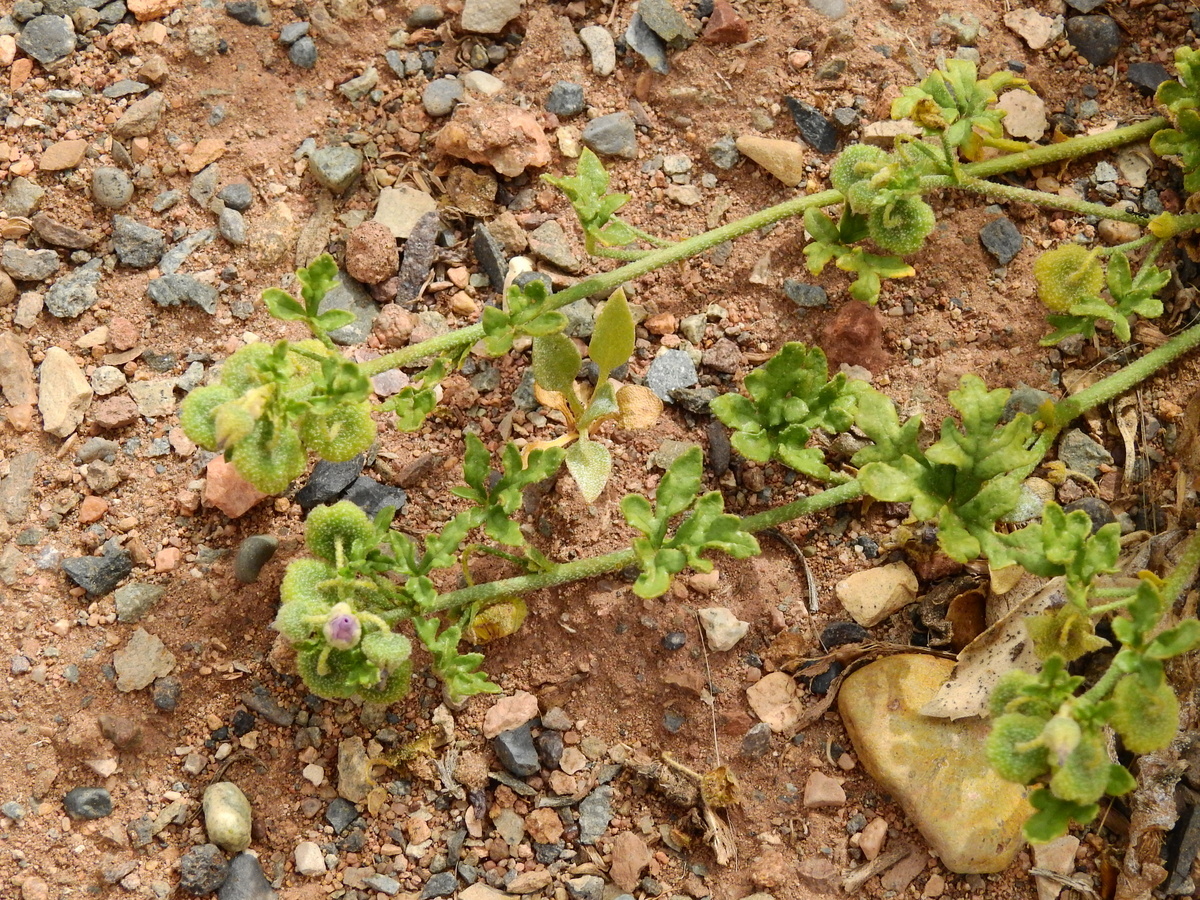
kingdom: Plantae
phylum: Tracheophyta
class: Magnoliopsida
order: Malvales
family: Malvaceae
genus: Lecanophora
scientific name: Lecanophora ameghinoi
